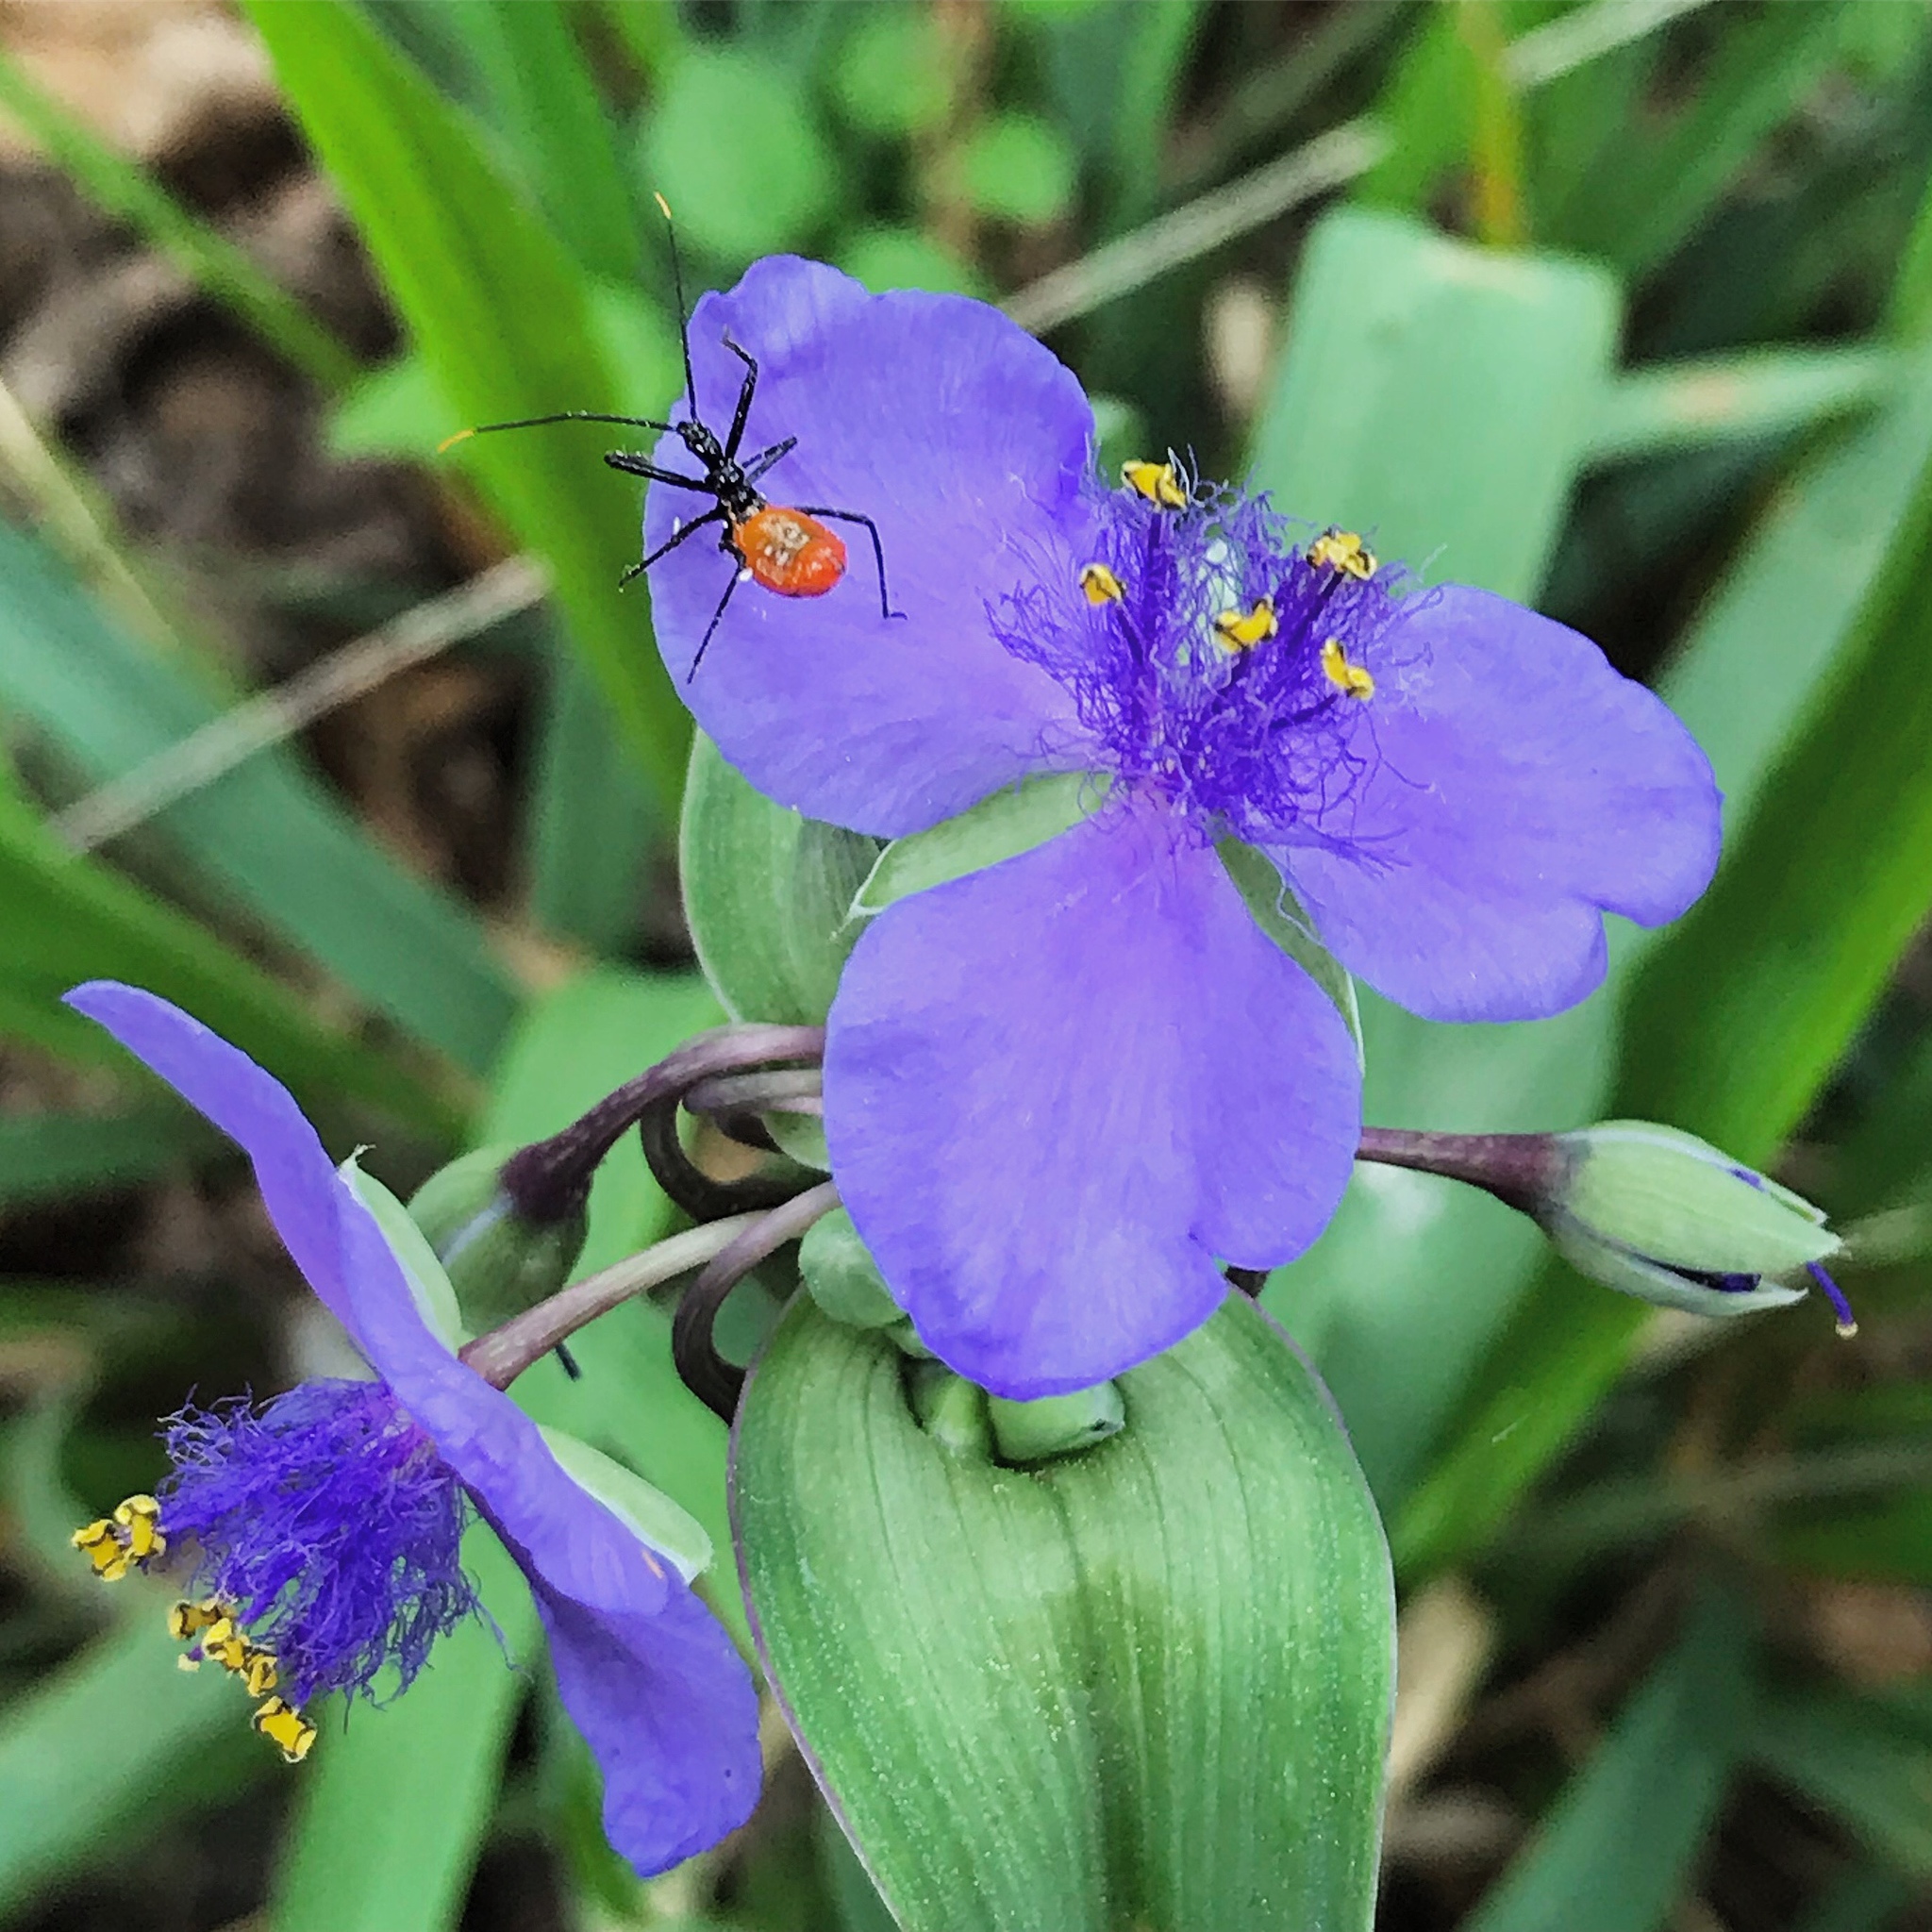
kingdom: Plantae
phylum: Tracheophyta
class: Liliopsida
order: Commelinales
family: Commelinaceae
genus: Tradescantia
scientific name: Tradescantia ohiensis
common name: Ohio spiderwort
